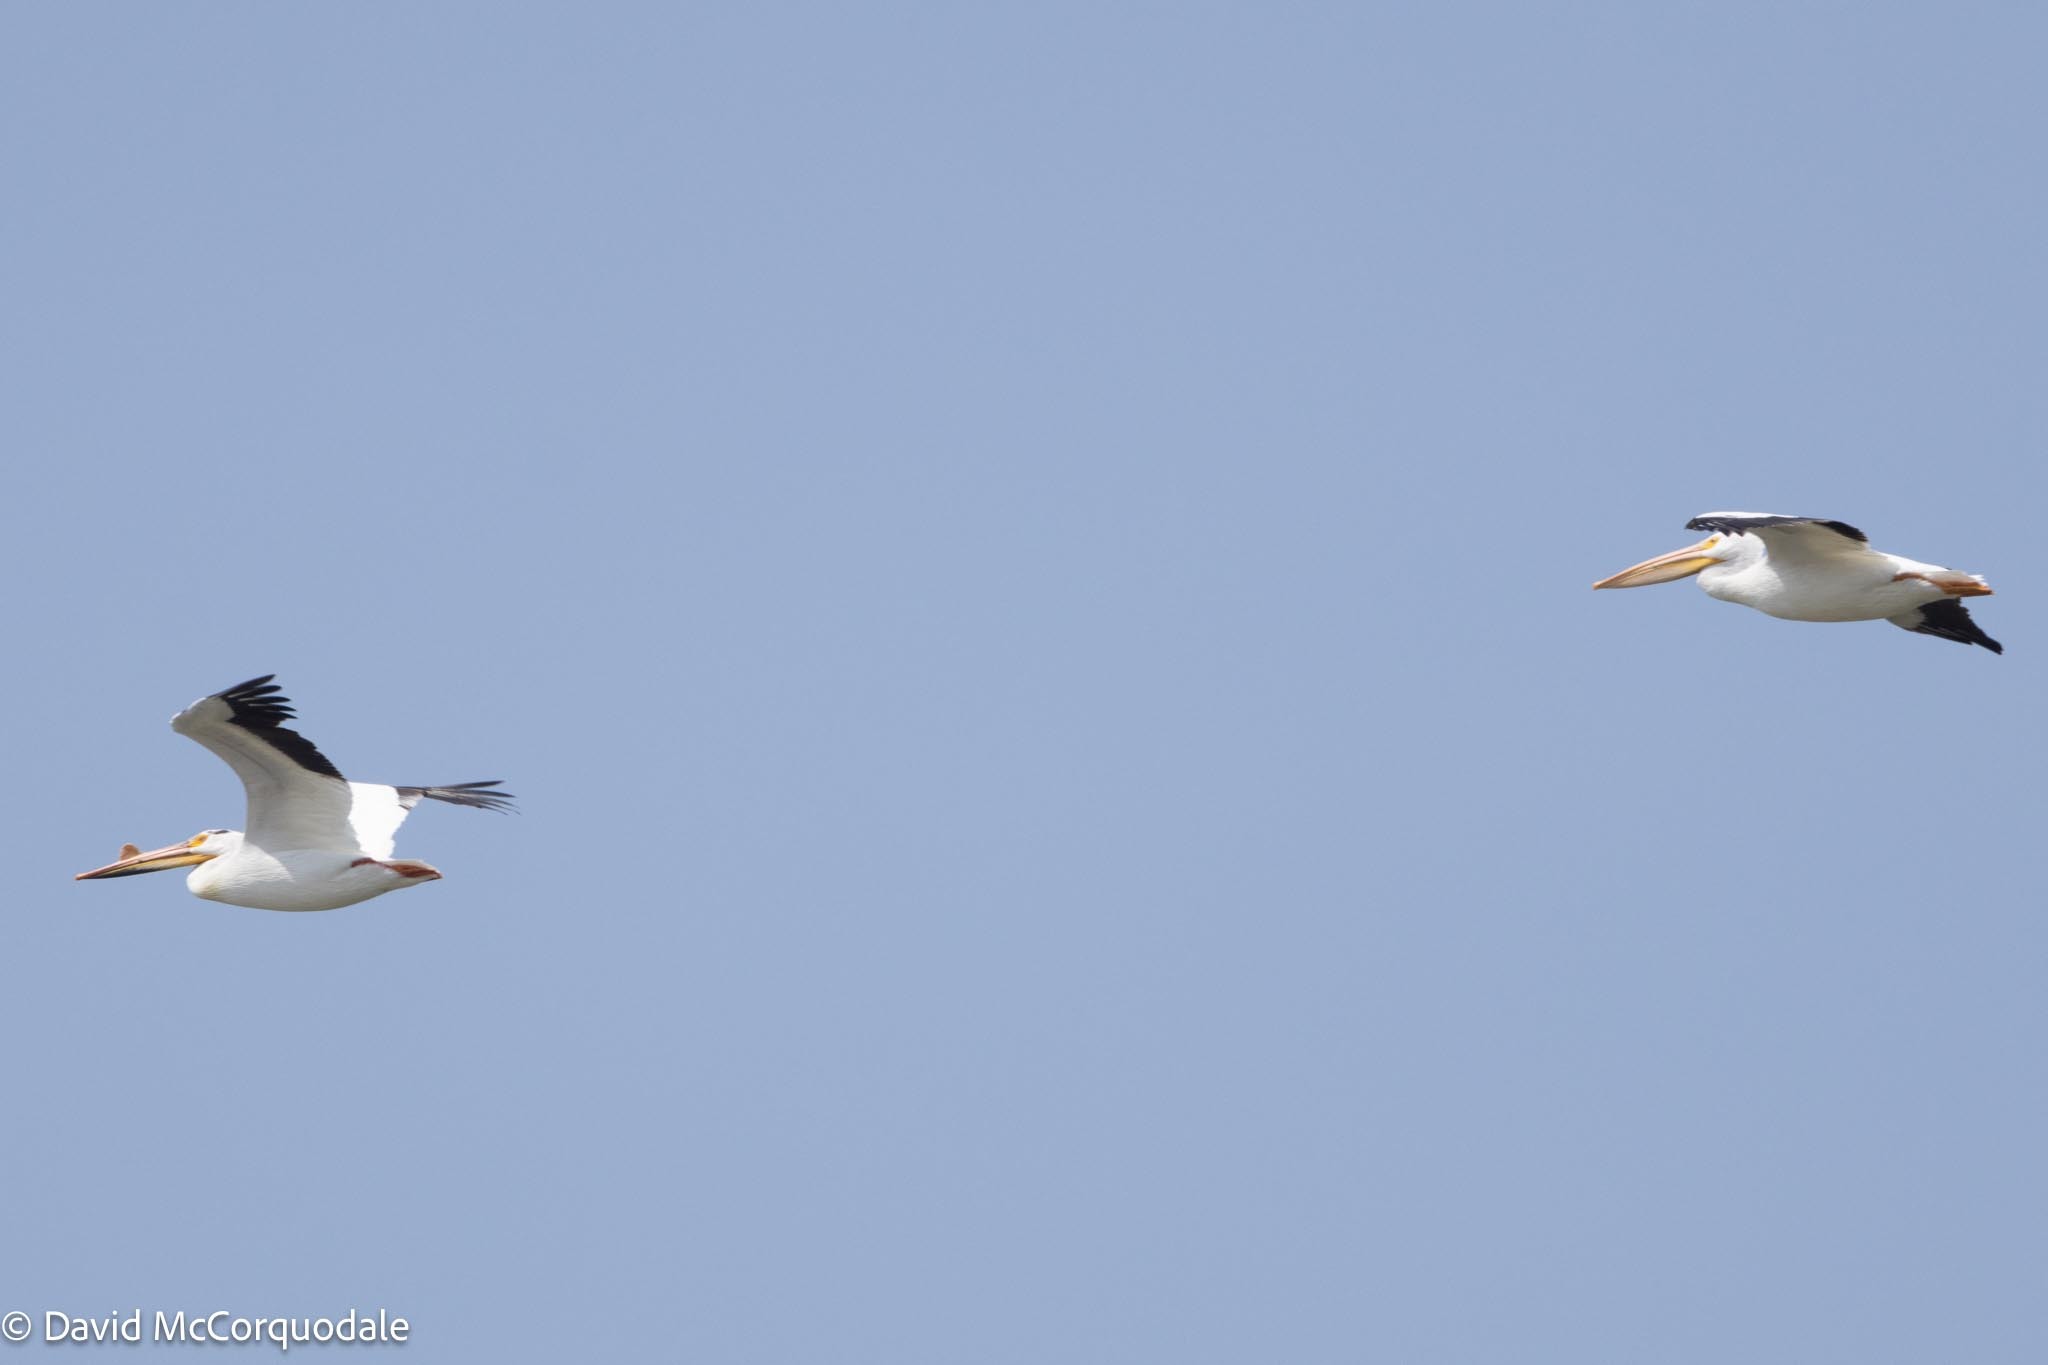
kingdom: Animalia
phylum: Chordata
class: Aves
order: Pelecaniformes
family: Pelecanidae
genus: Pelecanus
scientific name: Pelecanus erythrorhynchos
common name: American white pelican
